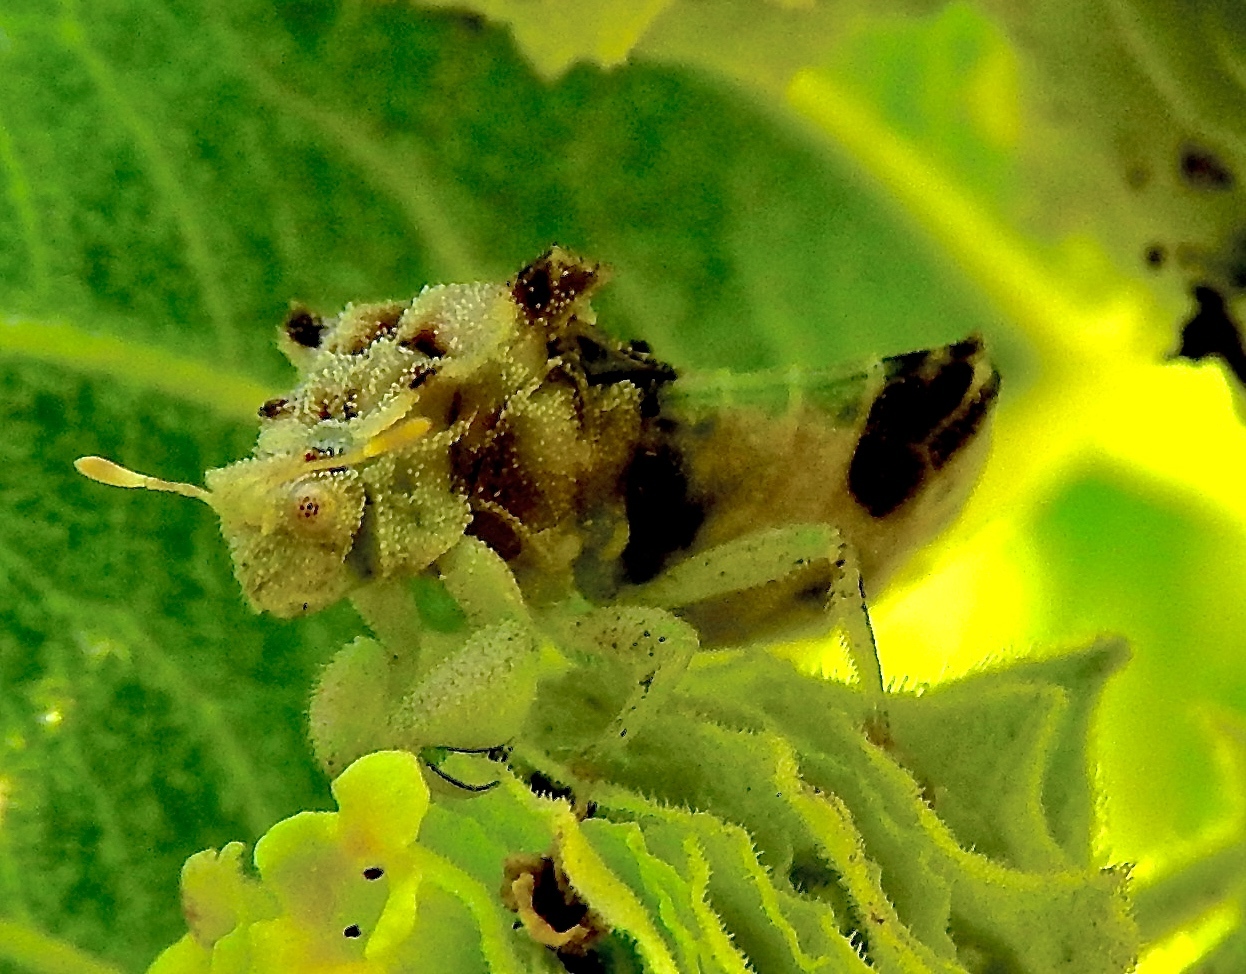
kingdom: Animalia
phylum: Arthropoda
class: Insecta
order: Hemiptera
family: Reduviidae
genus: Phymata
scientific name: Phymata
